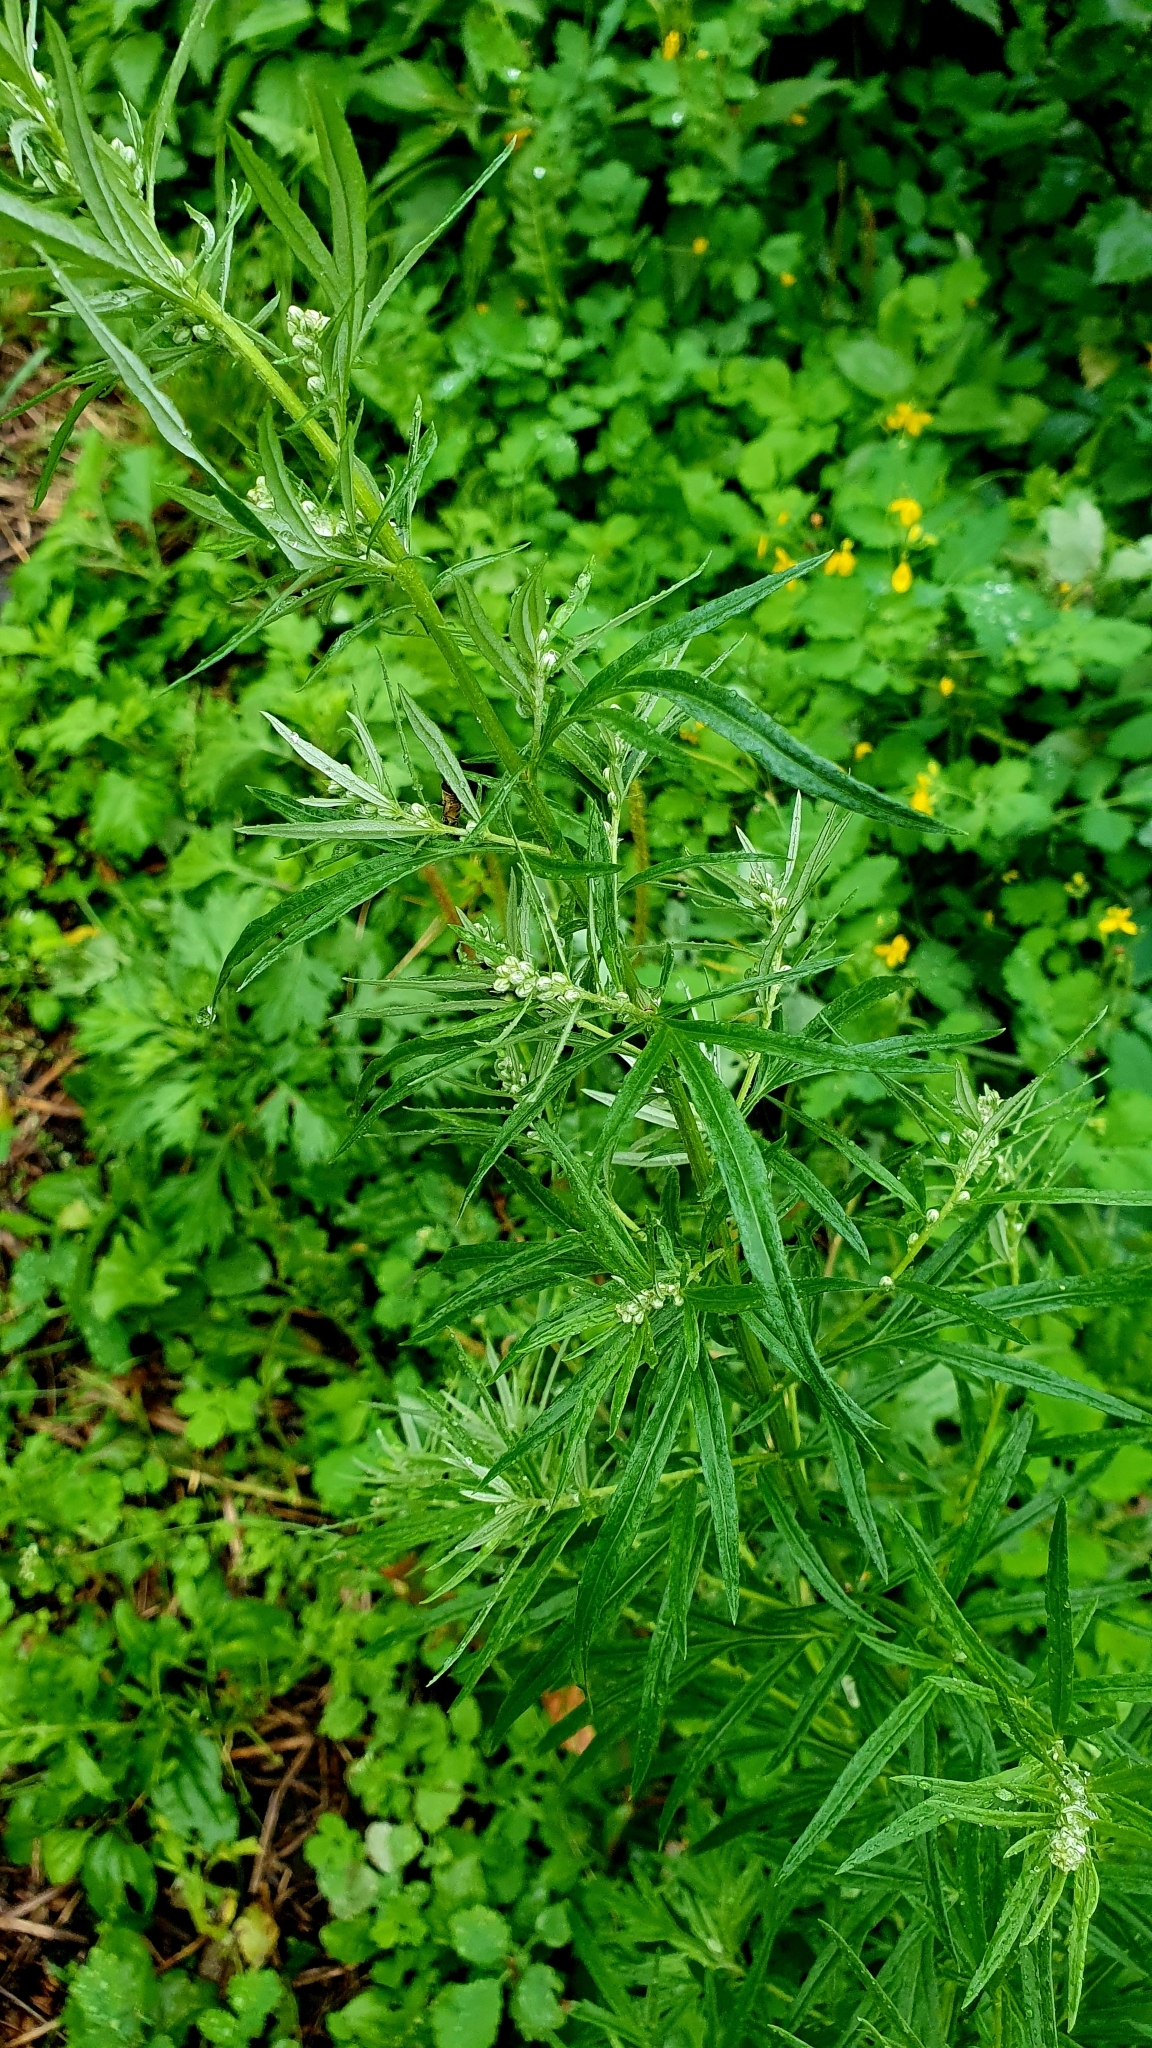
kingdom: Plantae
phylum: Tracheophyta
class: Magnoliopsida
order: Asterales
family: Asteraceae
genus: Artemisia
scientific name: Artemisia vulgaris
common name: Mugwort
